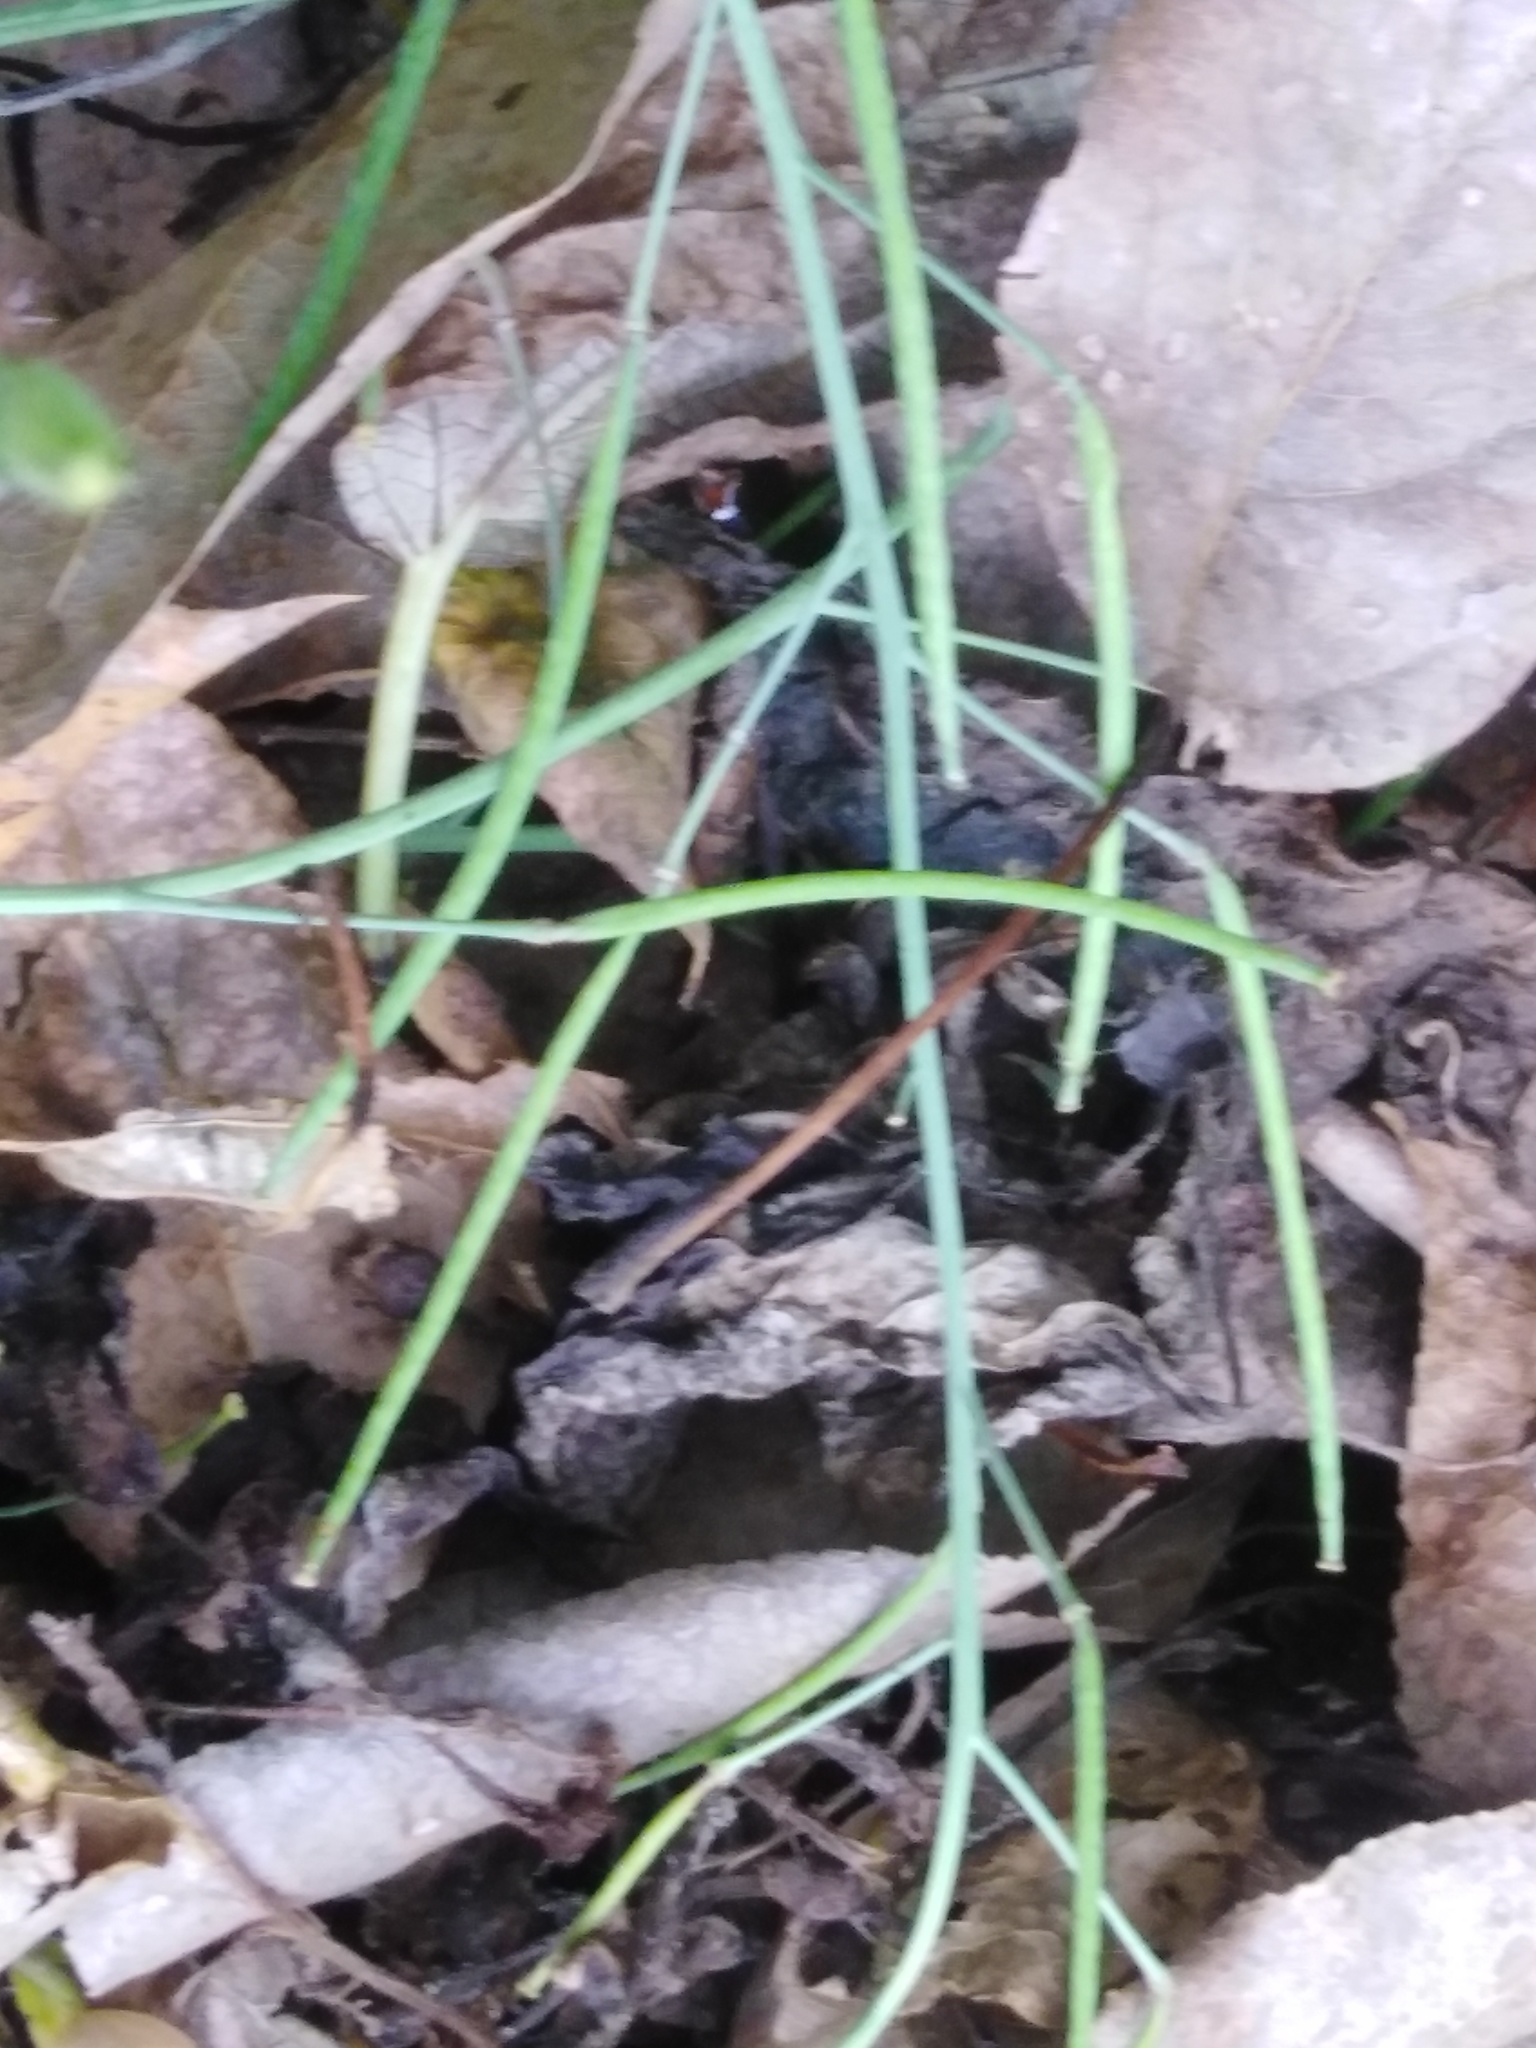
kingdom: Plantae
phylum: Tracheophyta
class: Magnoliopsida
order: Brassicales
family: Brassicaceae
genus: Diplotaxis
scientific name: Diplotaxis tenuifolia
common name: Perennial wall-rocket
